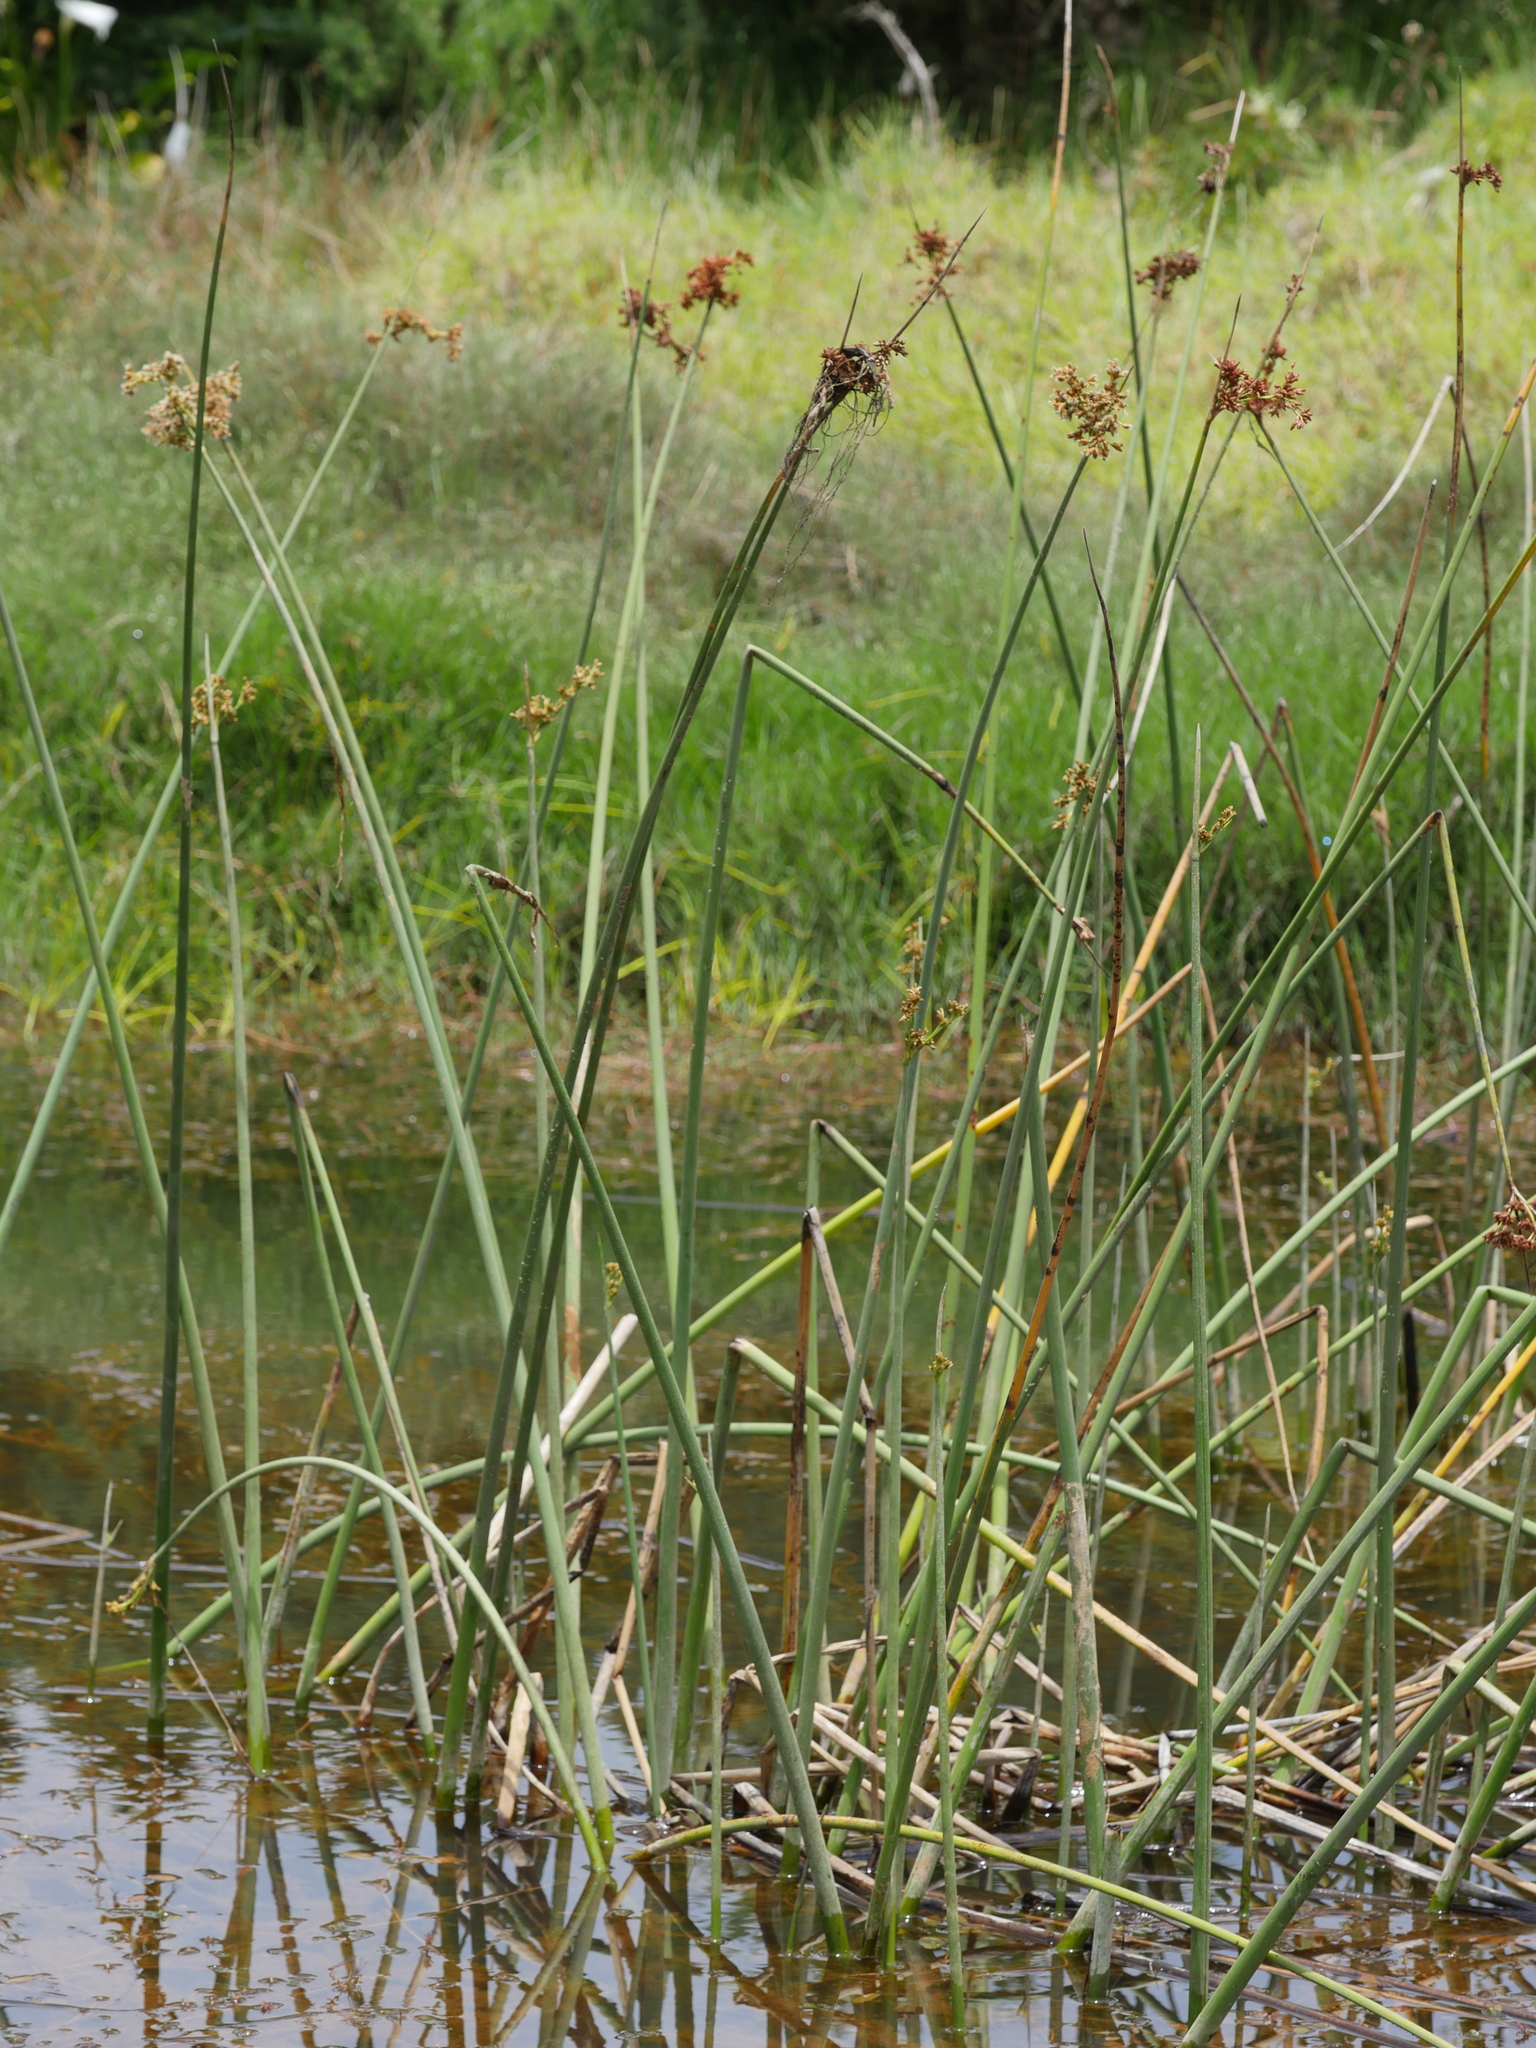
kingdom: Plantae
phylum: Tracheophyta
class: Liliopsida
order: Poales
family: Cyperaceae
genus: Schoenoplectus
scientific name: Schoenoplectus tabernaemontani
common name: Grey club-rush
